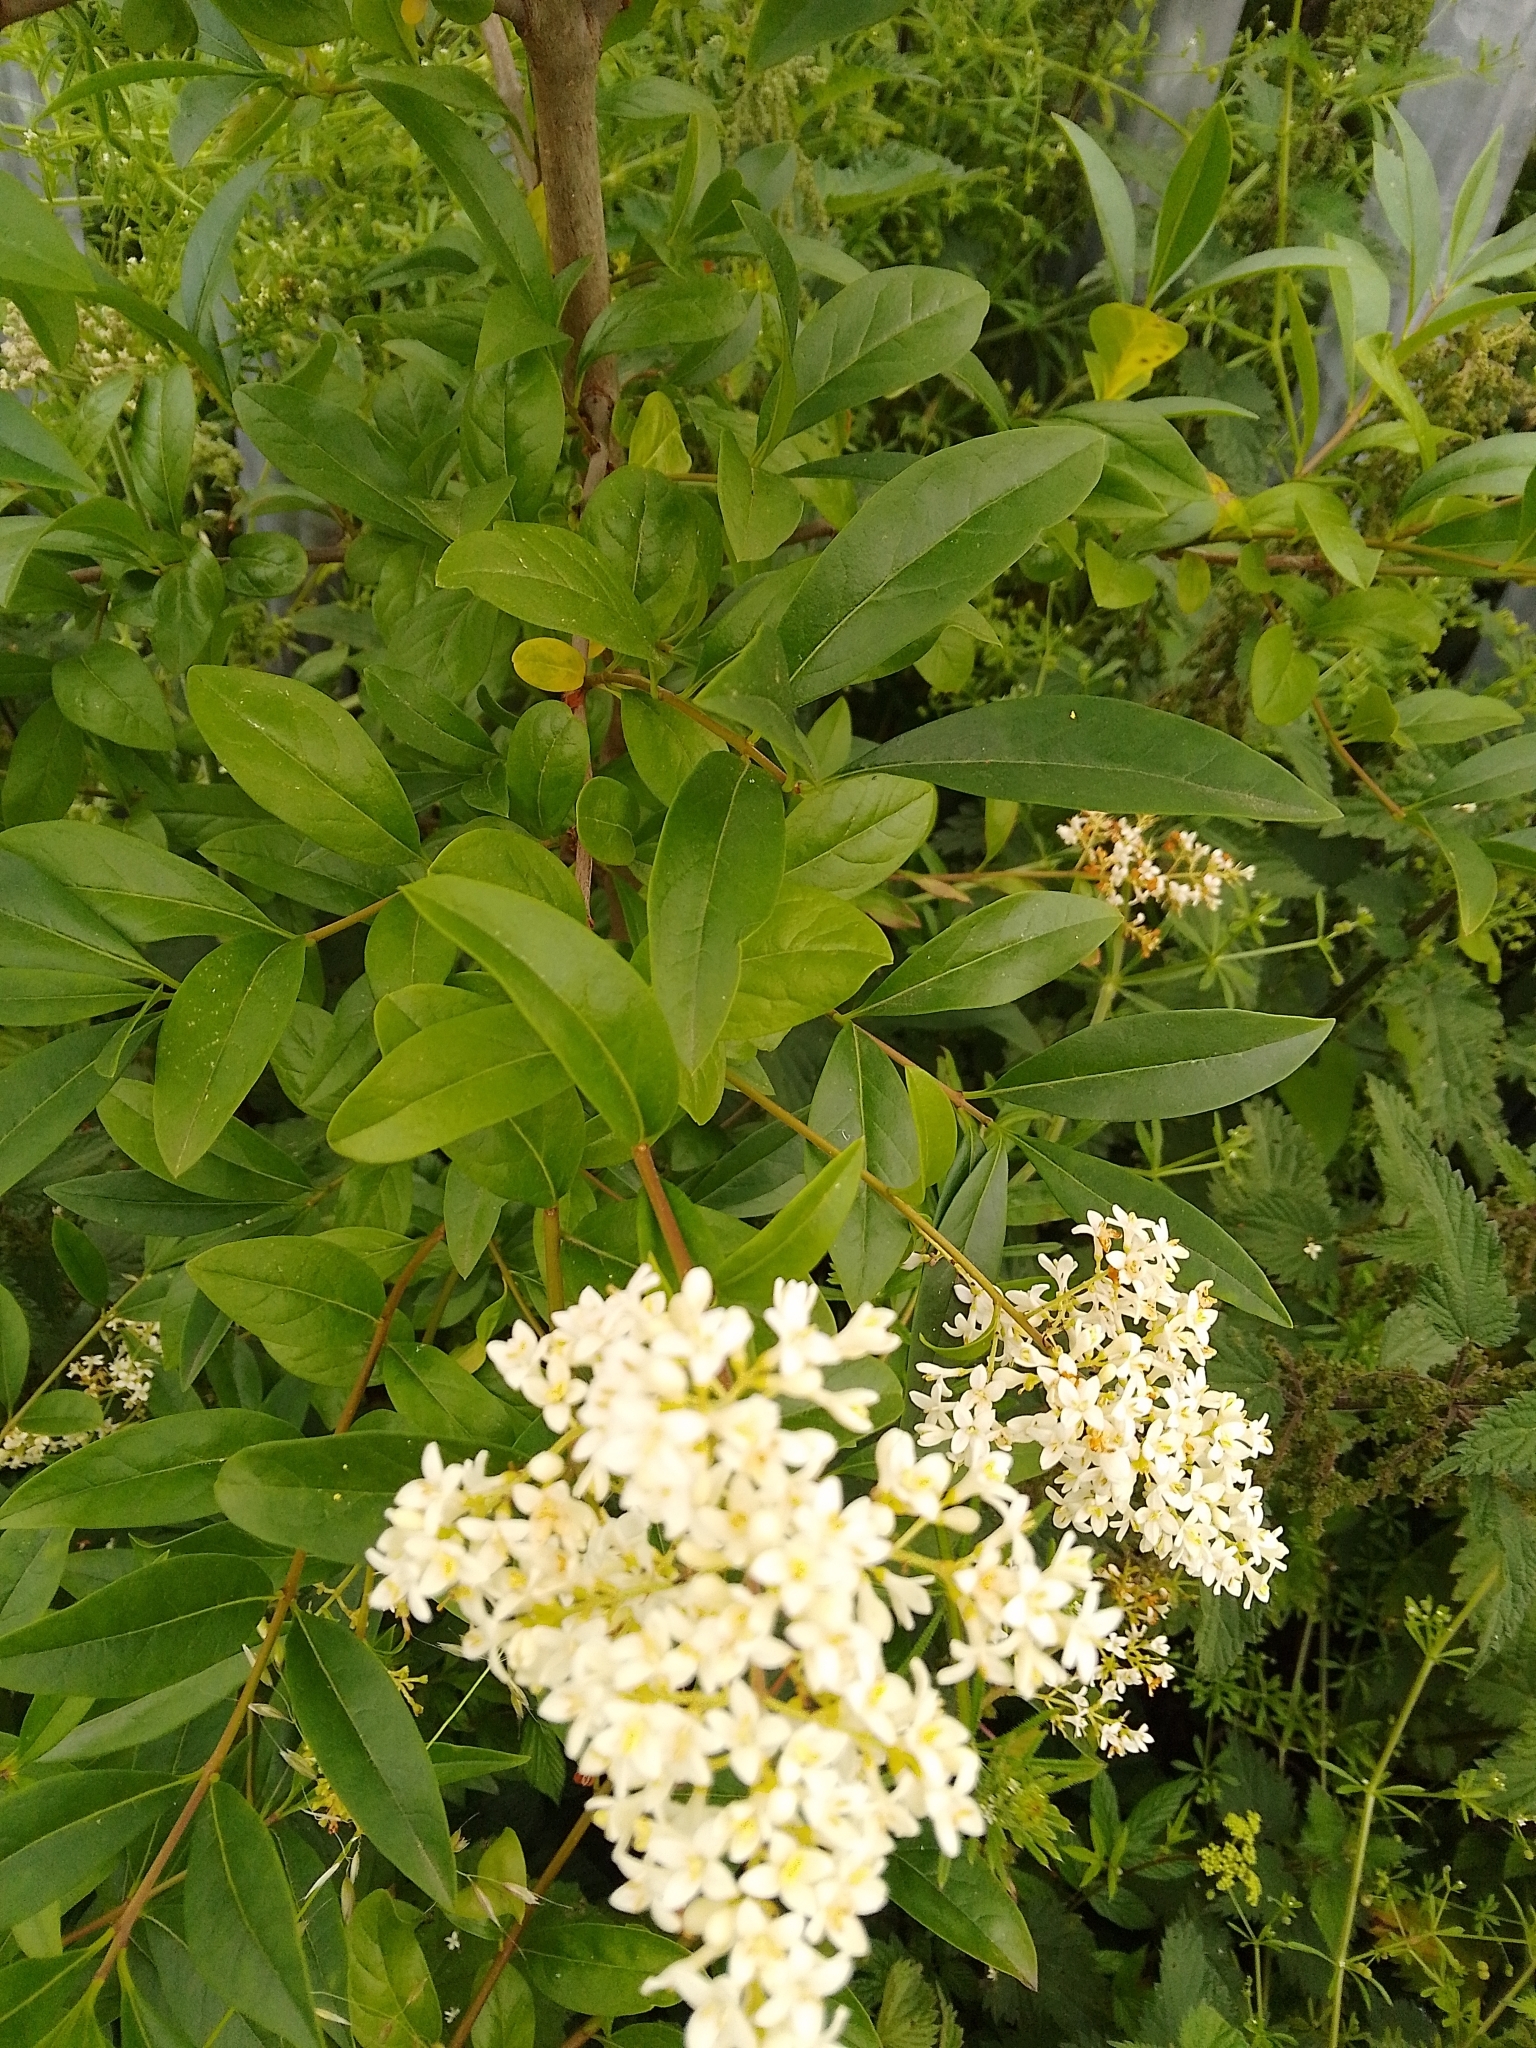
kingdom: Plantae
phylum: Tracheophyta
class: Magnoliopsida
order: Lamiales
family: Oleaceae
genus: Ligustrum
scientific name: Ligustrum vulgare
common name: Wild privet
